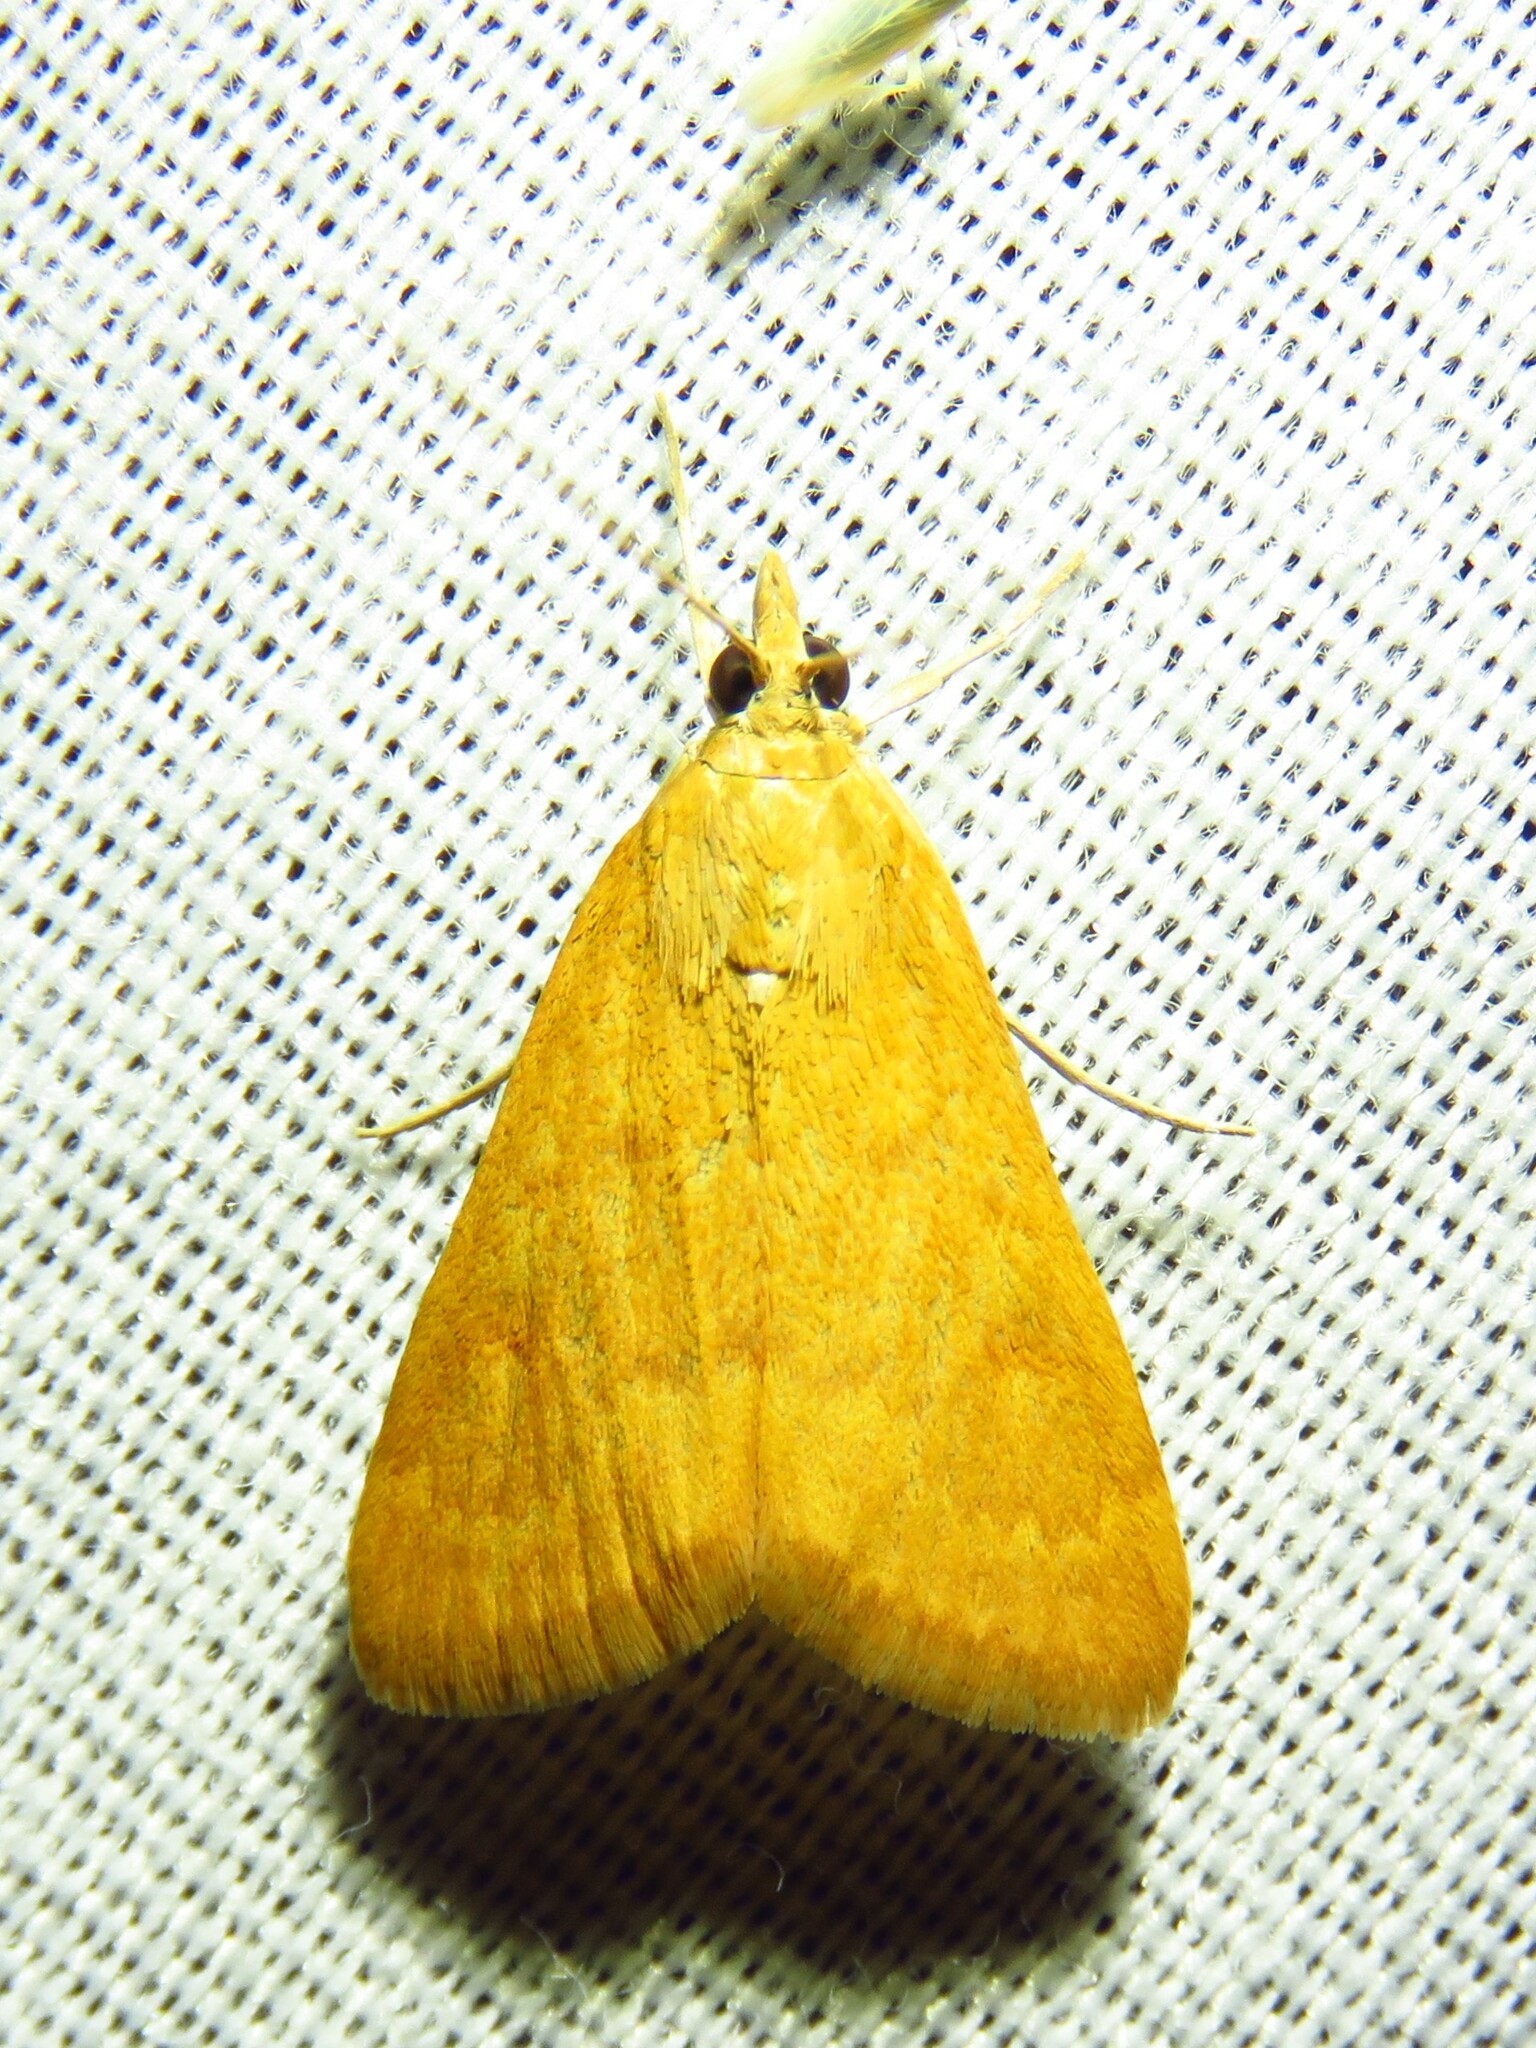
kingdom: Animalia
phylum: Arthropoda
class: Insecta
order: Lepidoptera
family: Crambidae
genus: Achyra
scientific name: Achyra rantalis
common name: Garden webworm
